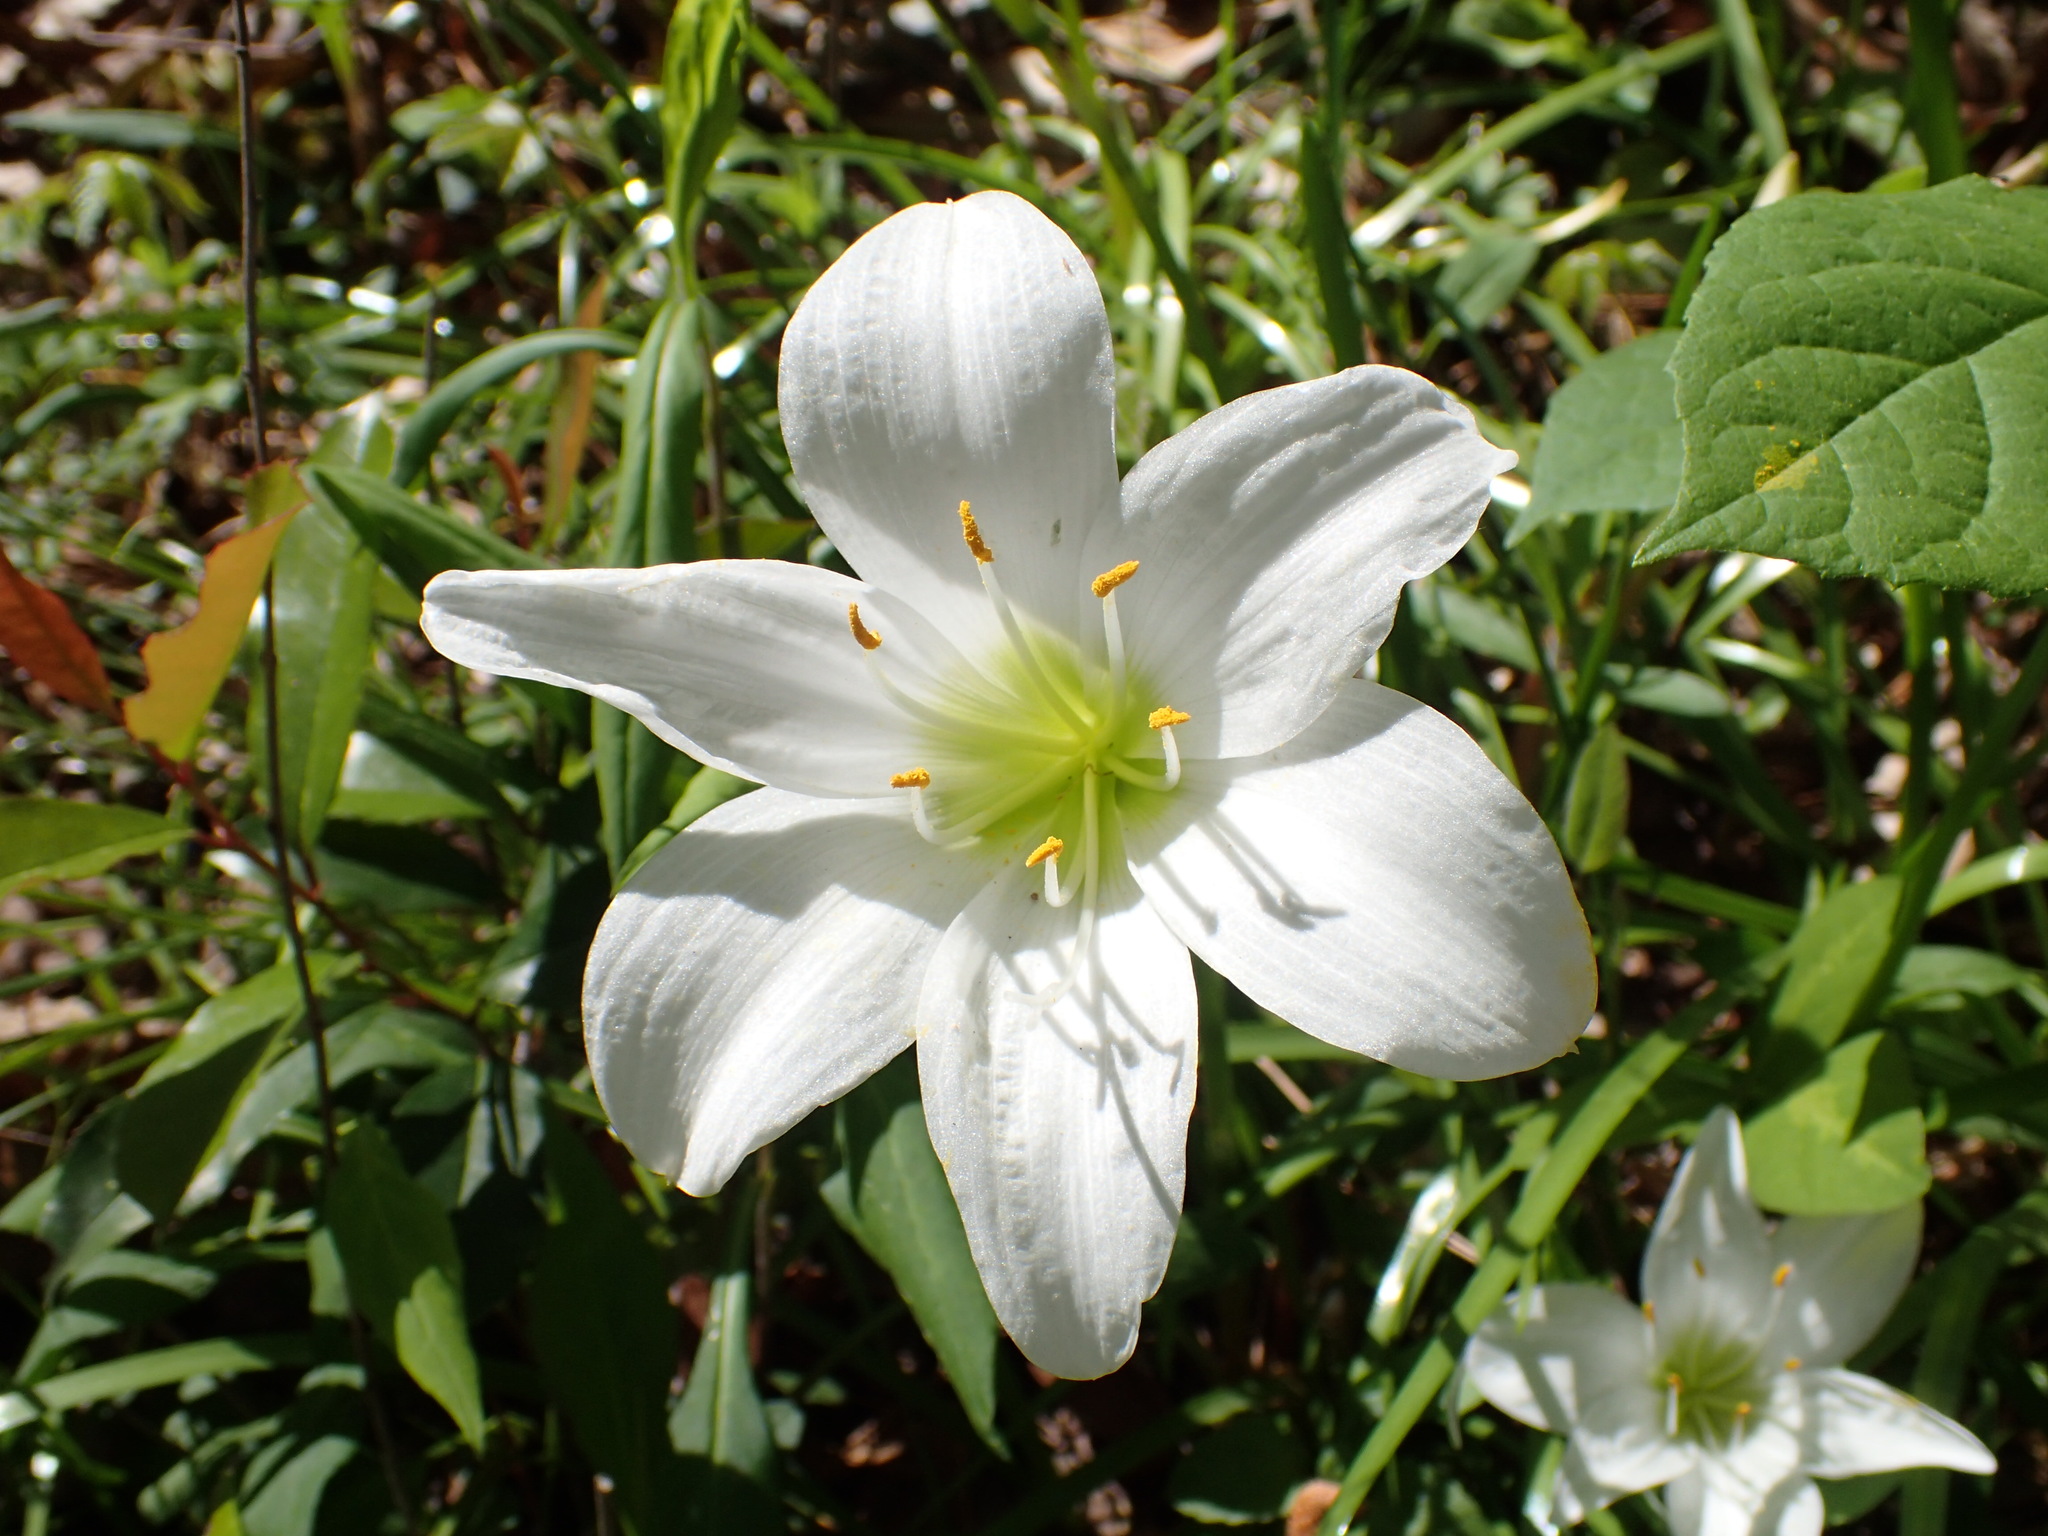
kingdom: Plantae
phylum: Tracheophyta
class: Liliopsida
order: Asparagales
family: Amaryllidaceae
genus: Zephyranthes
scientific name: Zephyranthes atamasco
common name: Atamasco lily
